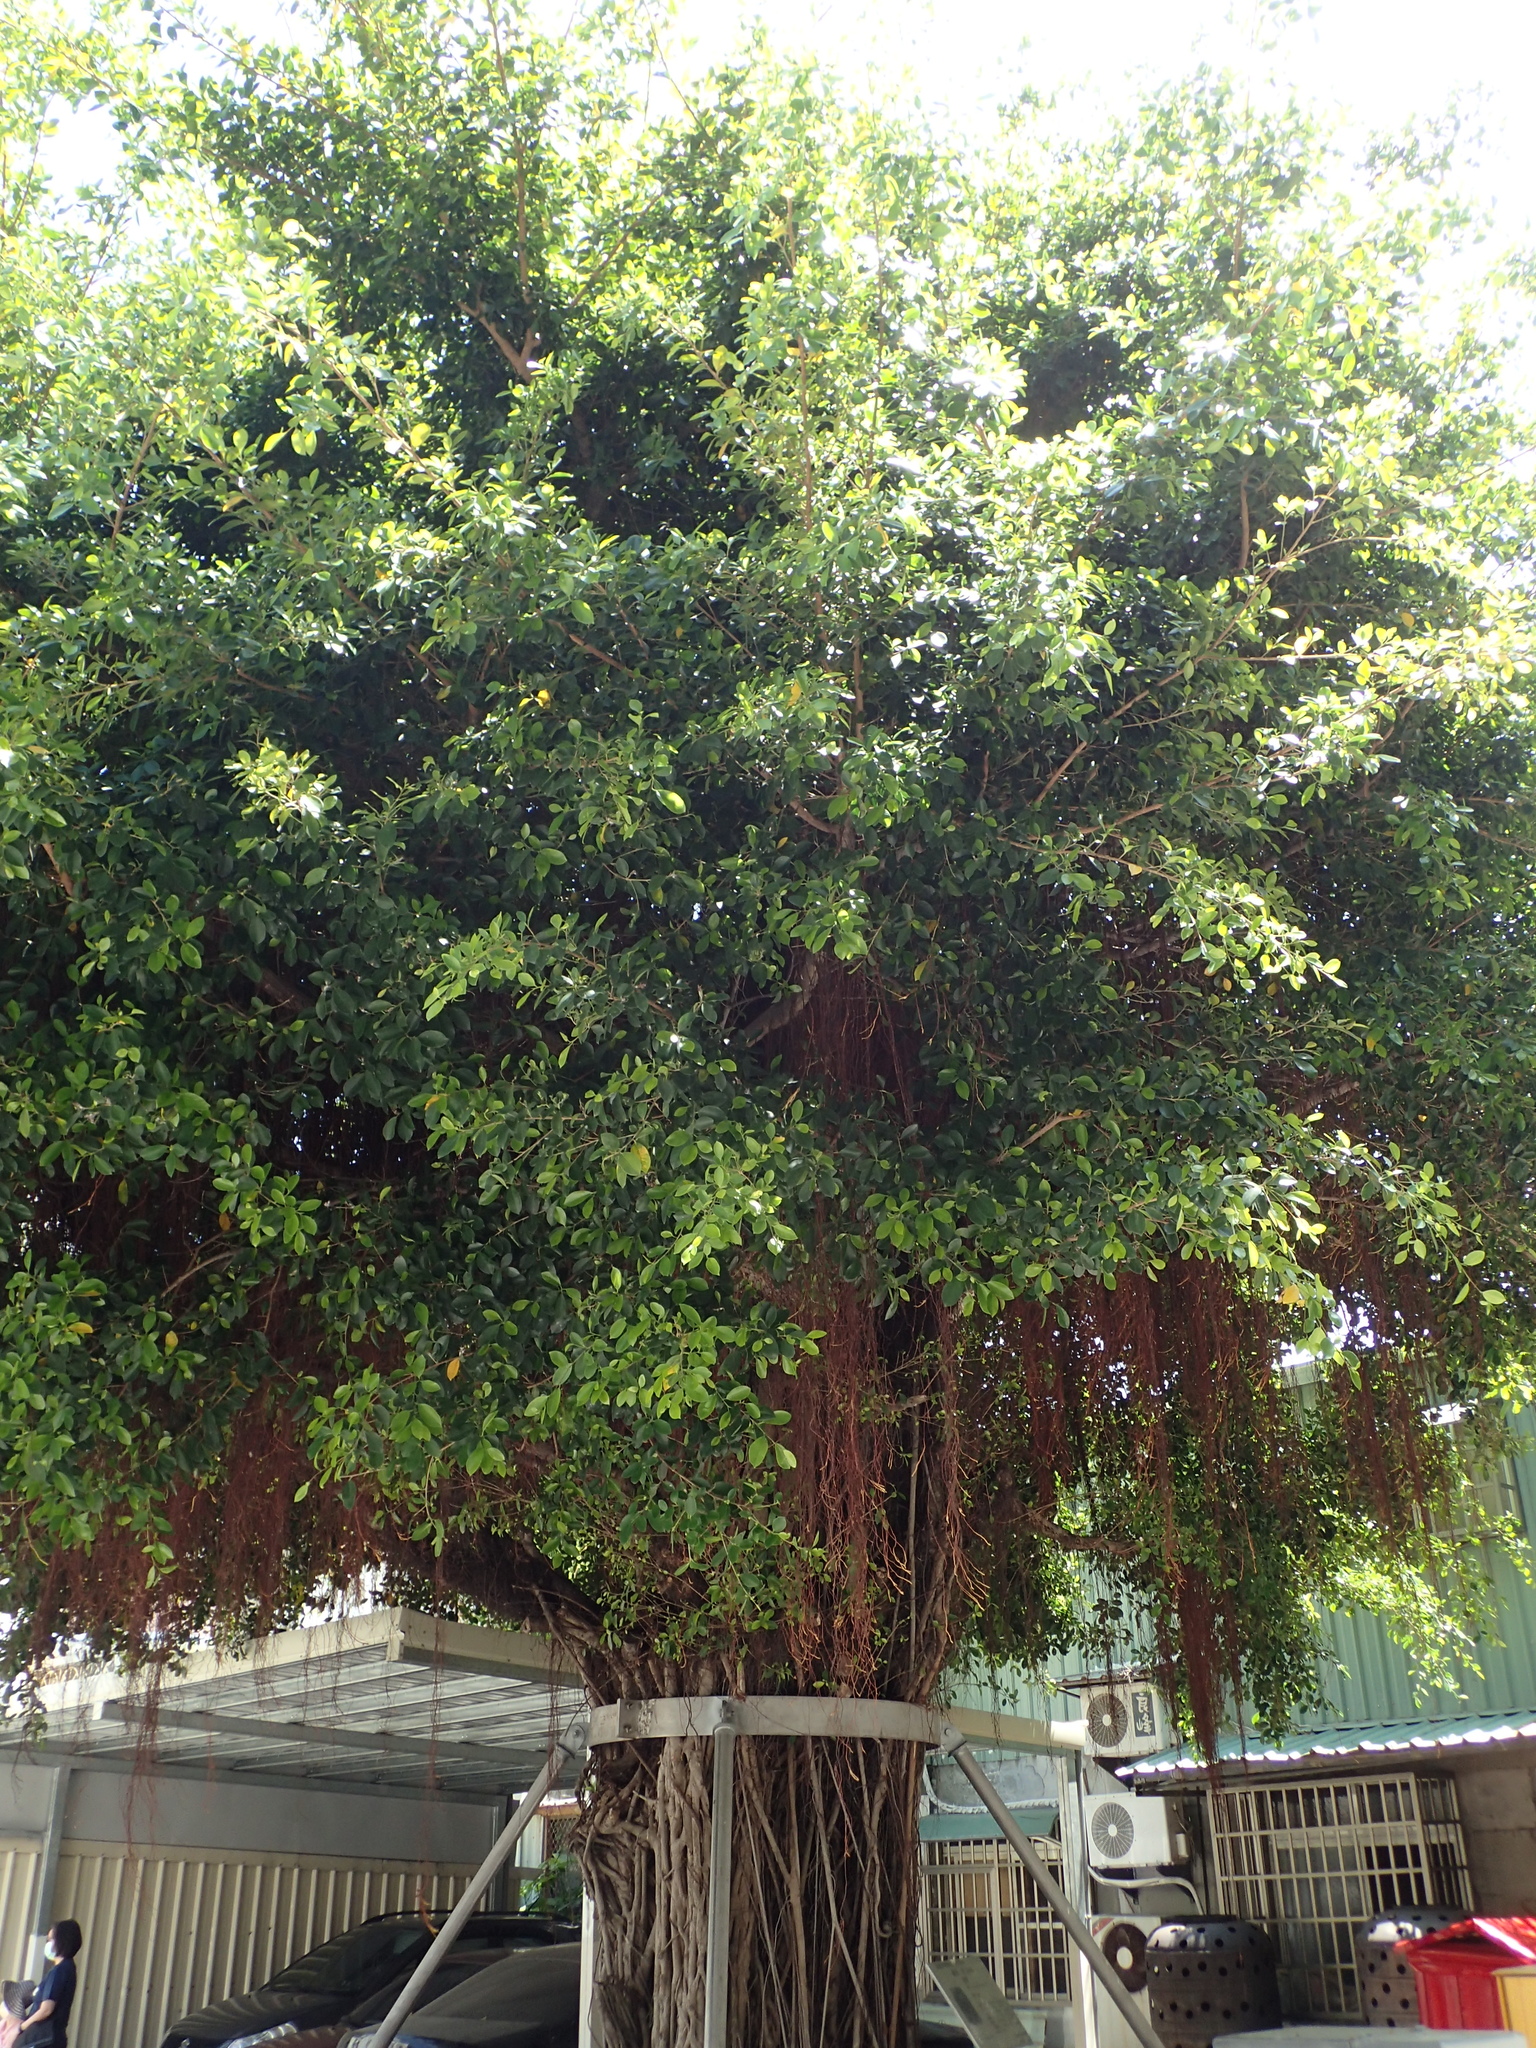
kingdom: Plantae
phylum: Tracheophyta
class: Magnoliopsida
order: Rosales
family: Moraceae
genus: Ficus
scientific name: Ficus microcarpa
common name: Chinese banyan
